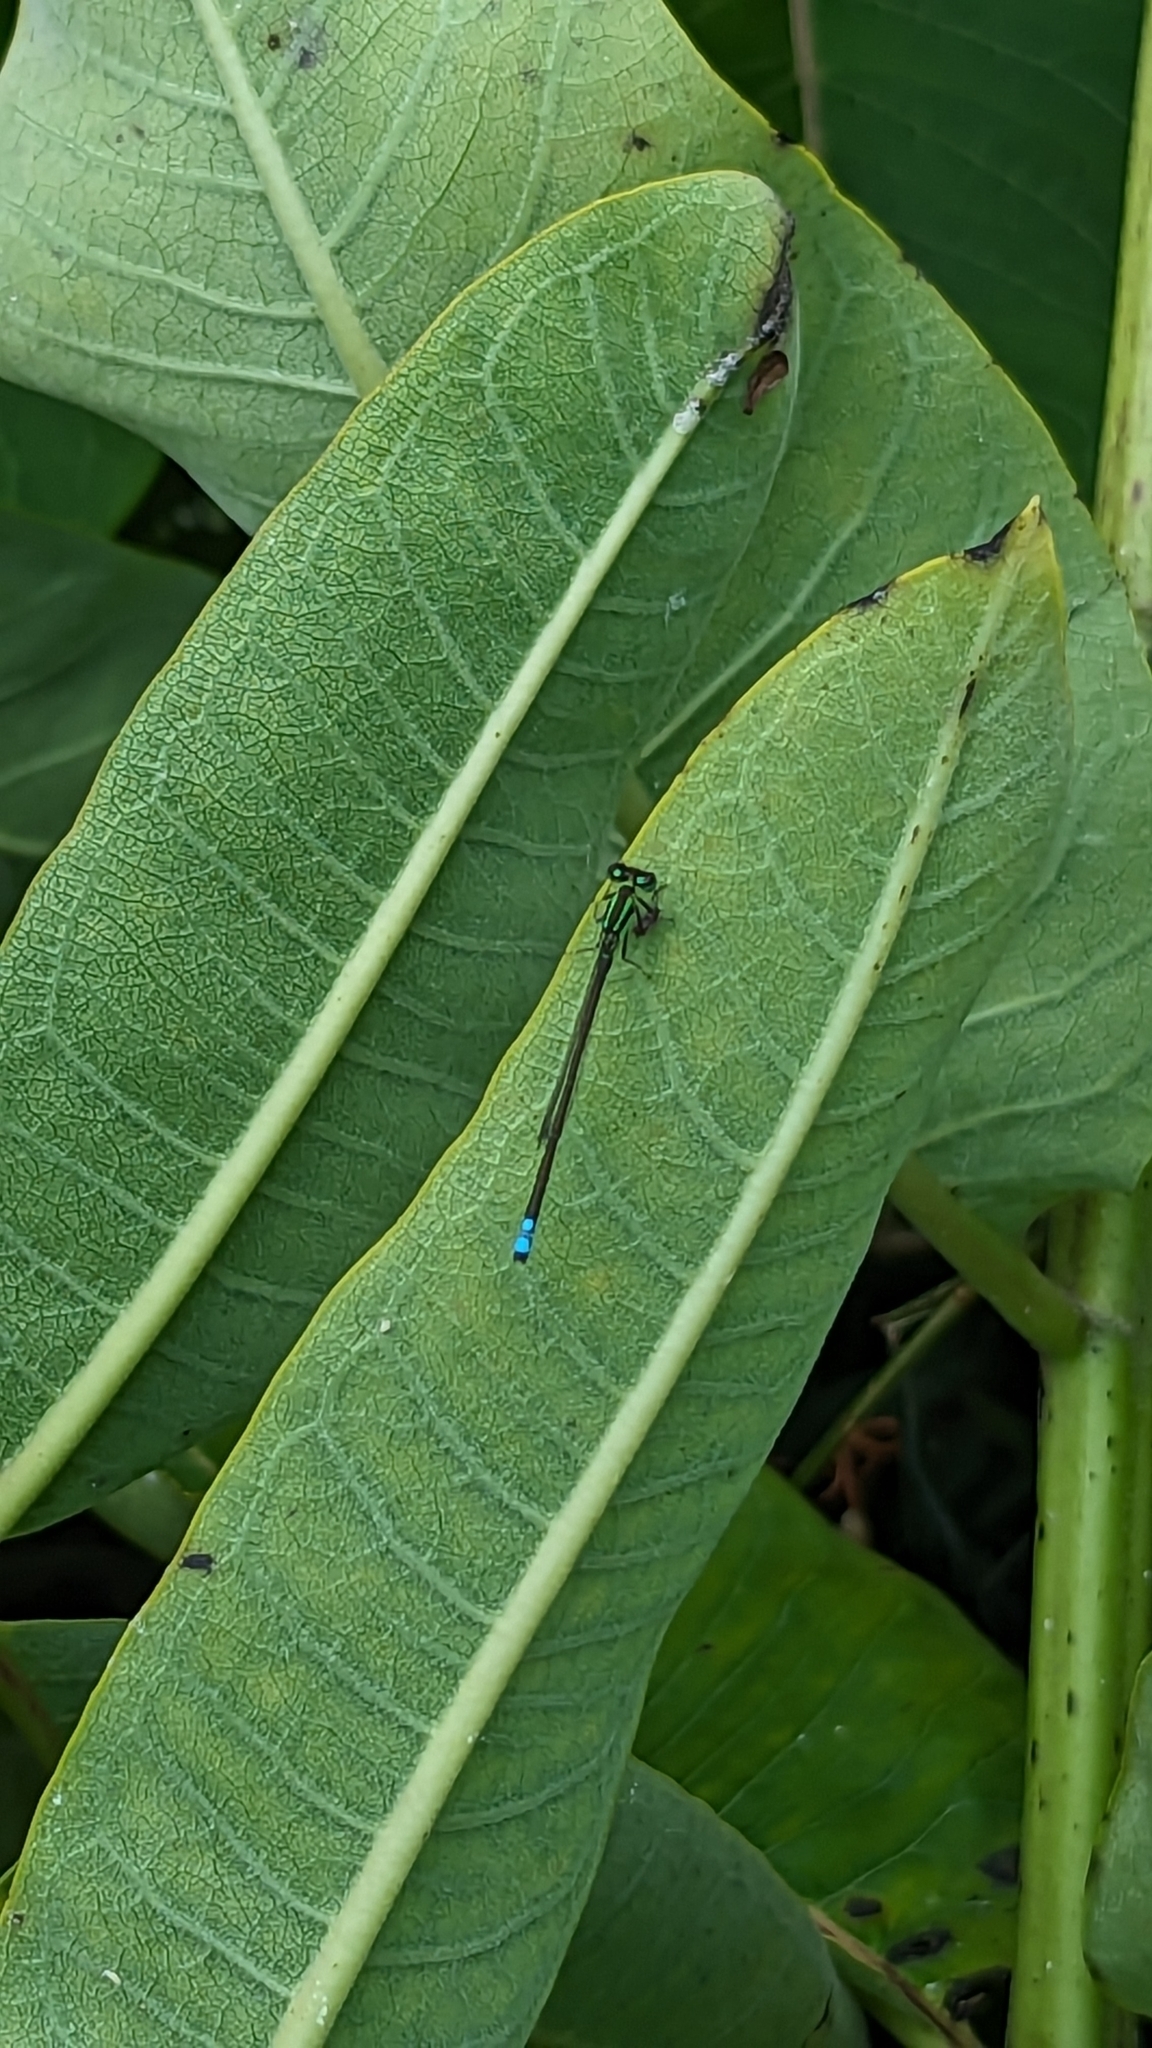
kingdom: Animalia
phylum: Arthropoda
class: Insecta
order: Odonata
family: Coenagrionidae
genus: Ischnura
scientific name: Ischnura verticalis
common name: Eastern forktail
